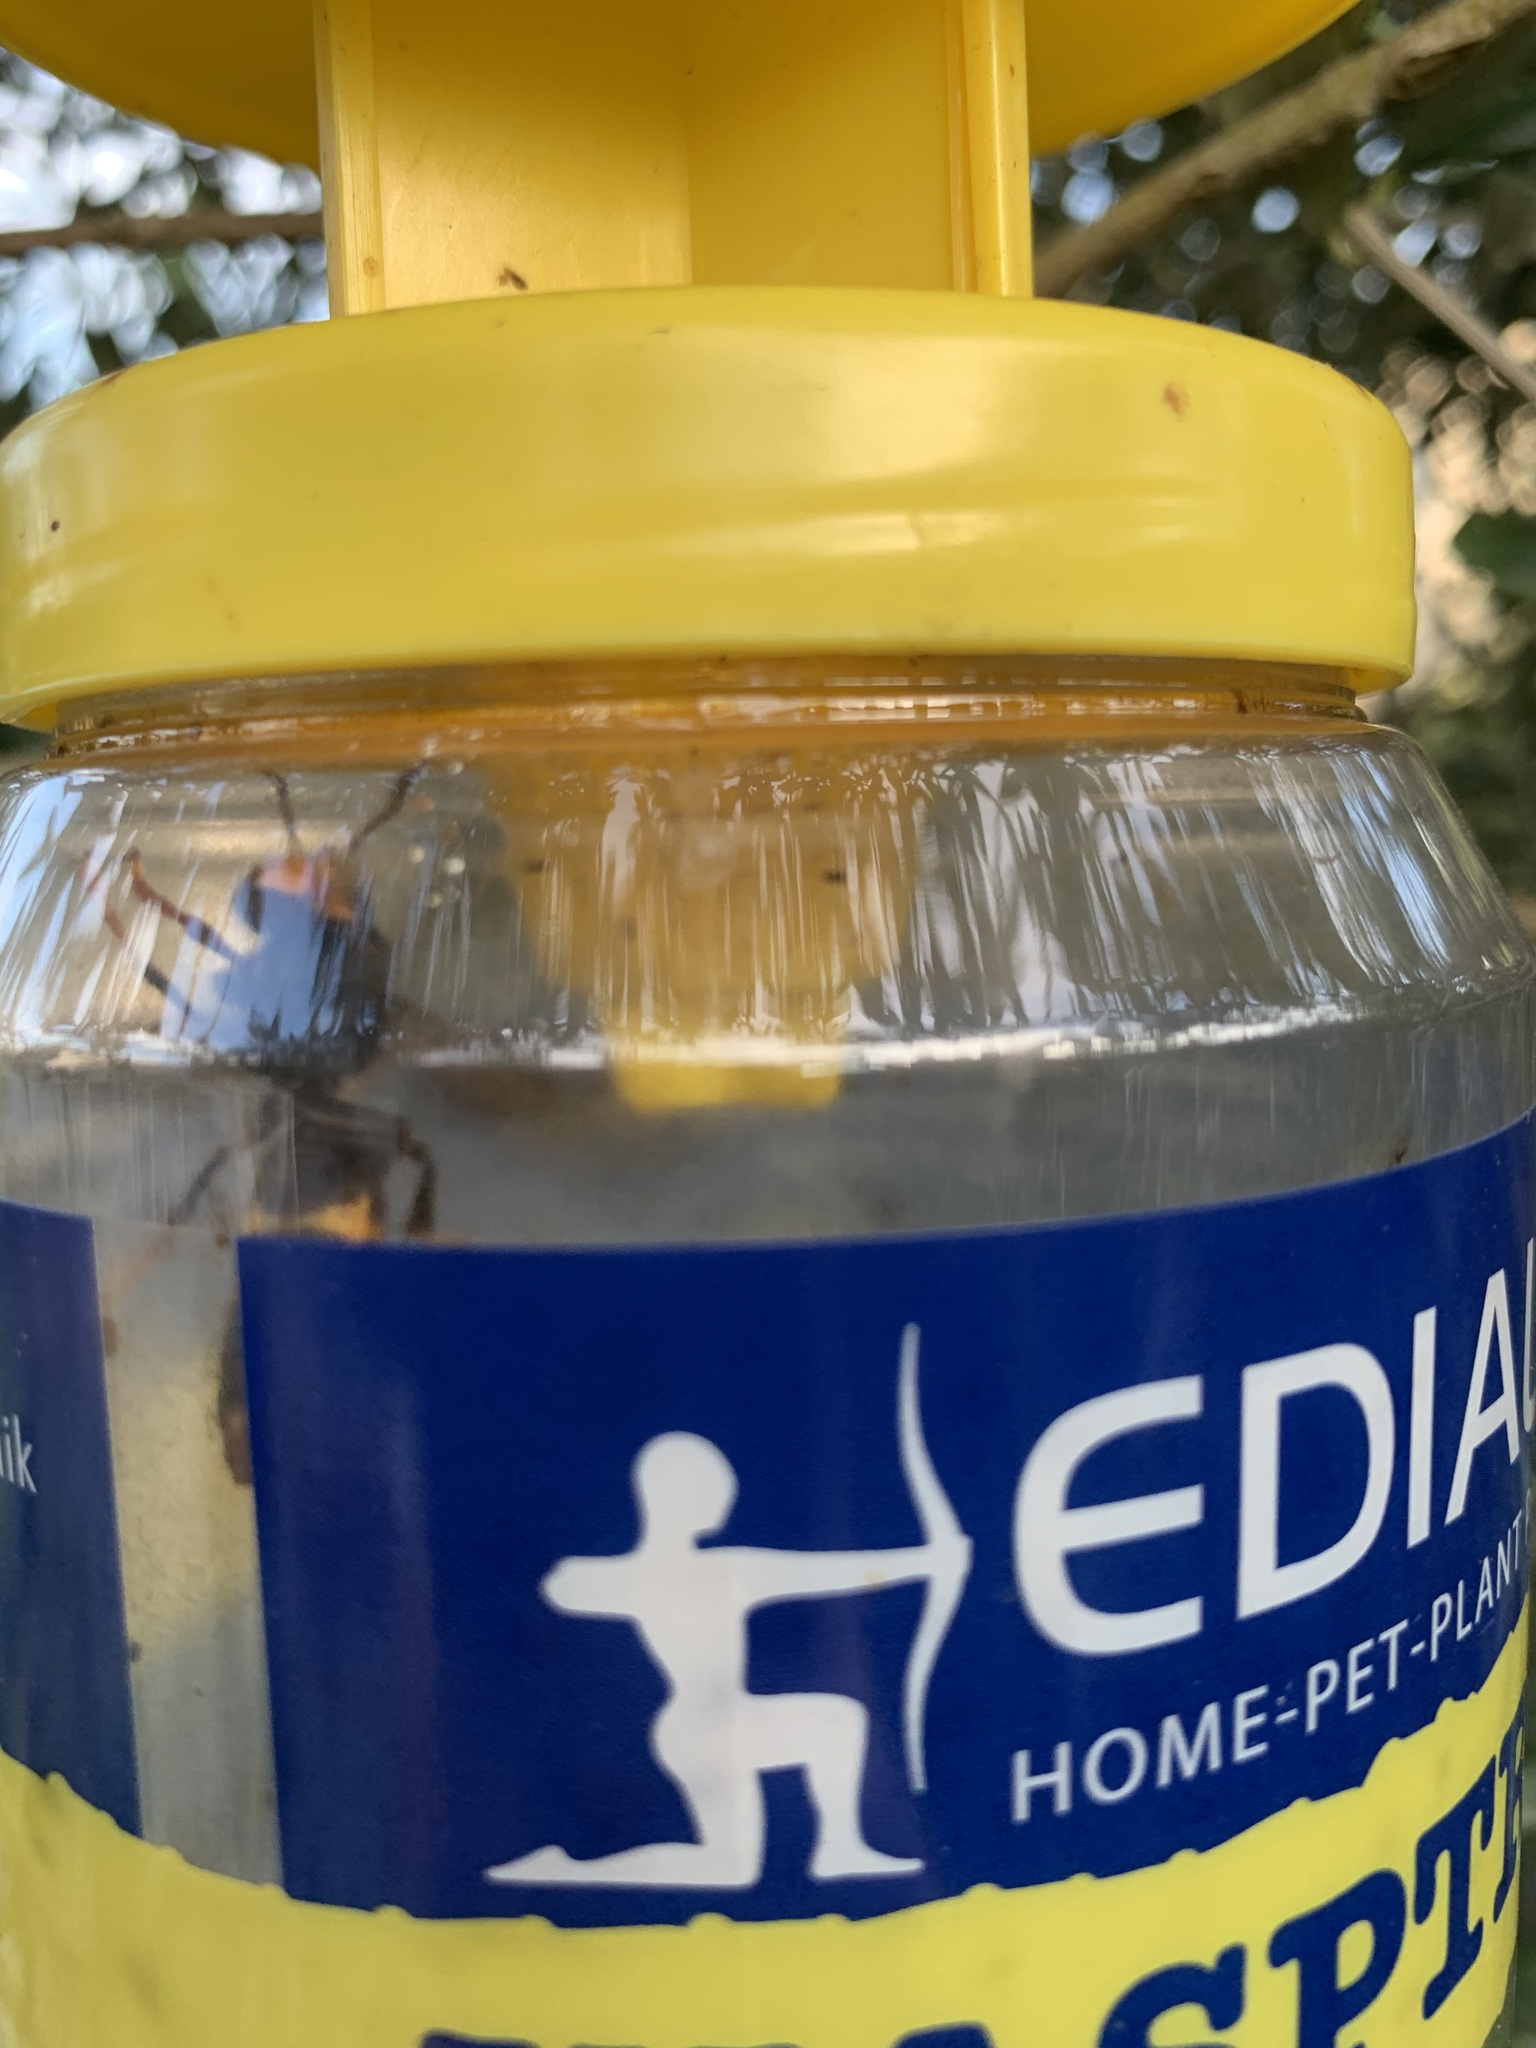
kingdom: Animalia
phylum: Arthropoda
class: Insecta
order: Hymenoptera
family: Vespidae
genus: Vespa
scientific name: Vespa velutina
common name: Asian hornet
